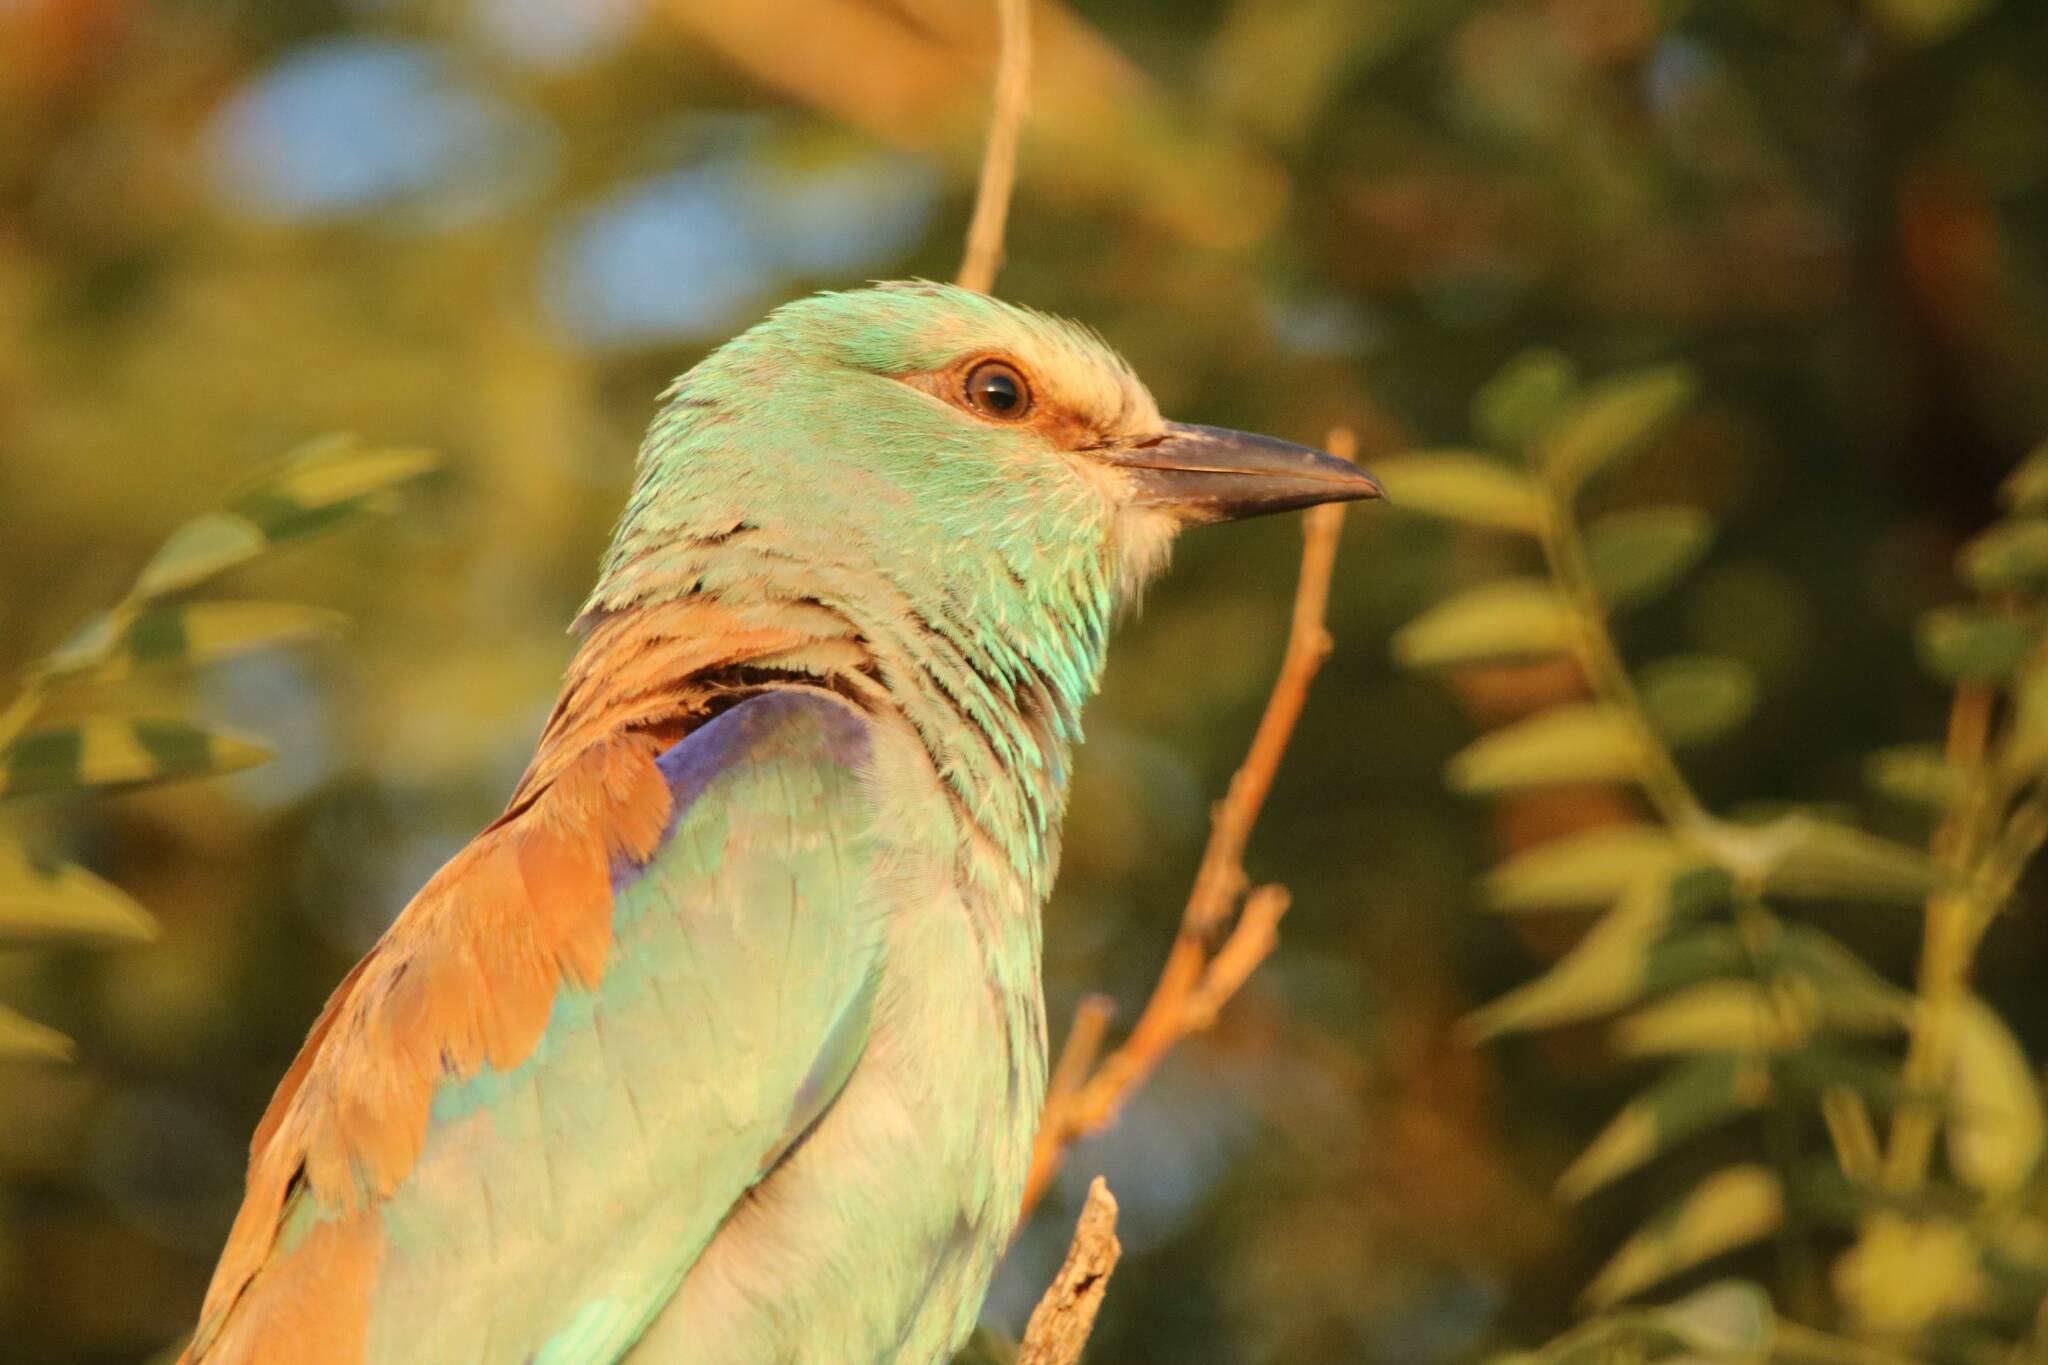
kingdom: Animalia
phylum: Chordata
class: Aves
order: Bucerotiformes
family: Upupidae
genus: Upupa
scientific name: Upupa epops
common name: Eurasian hoopoe
